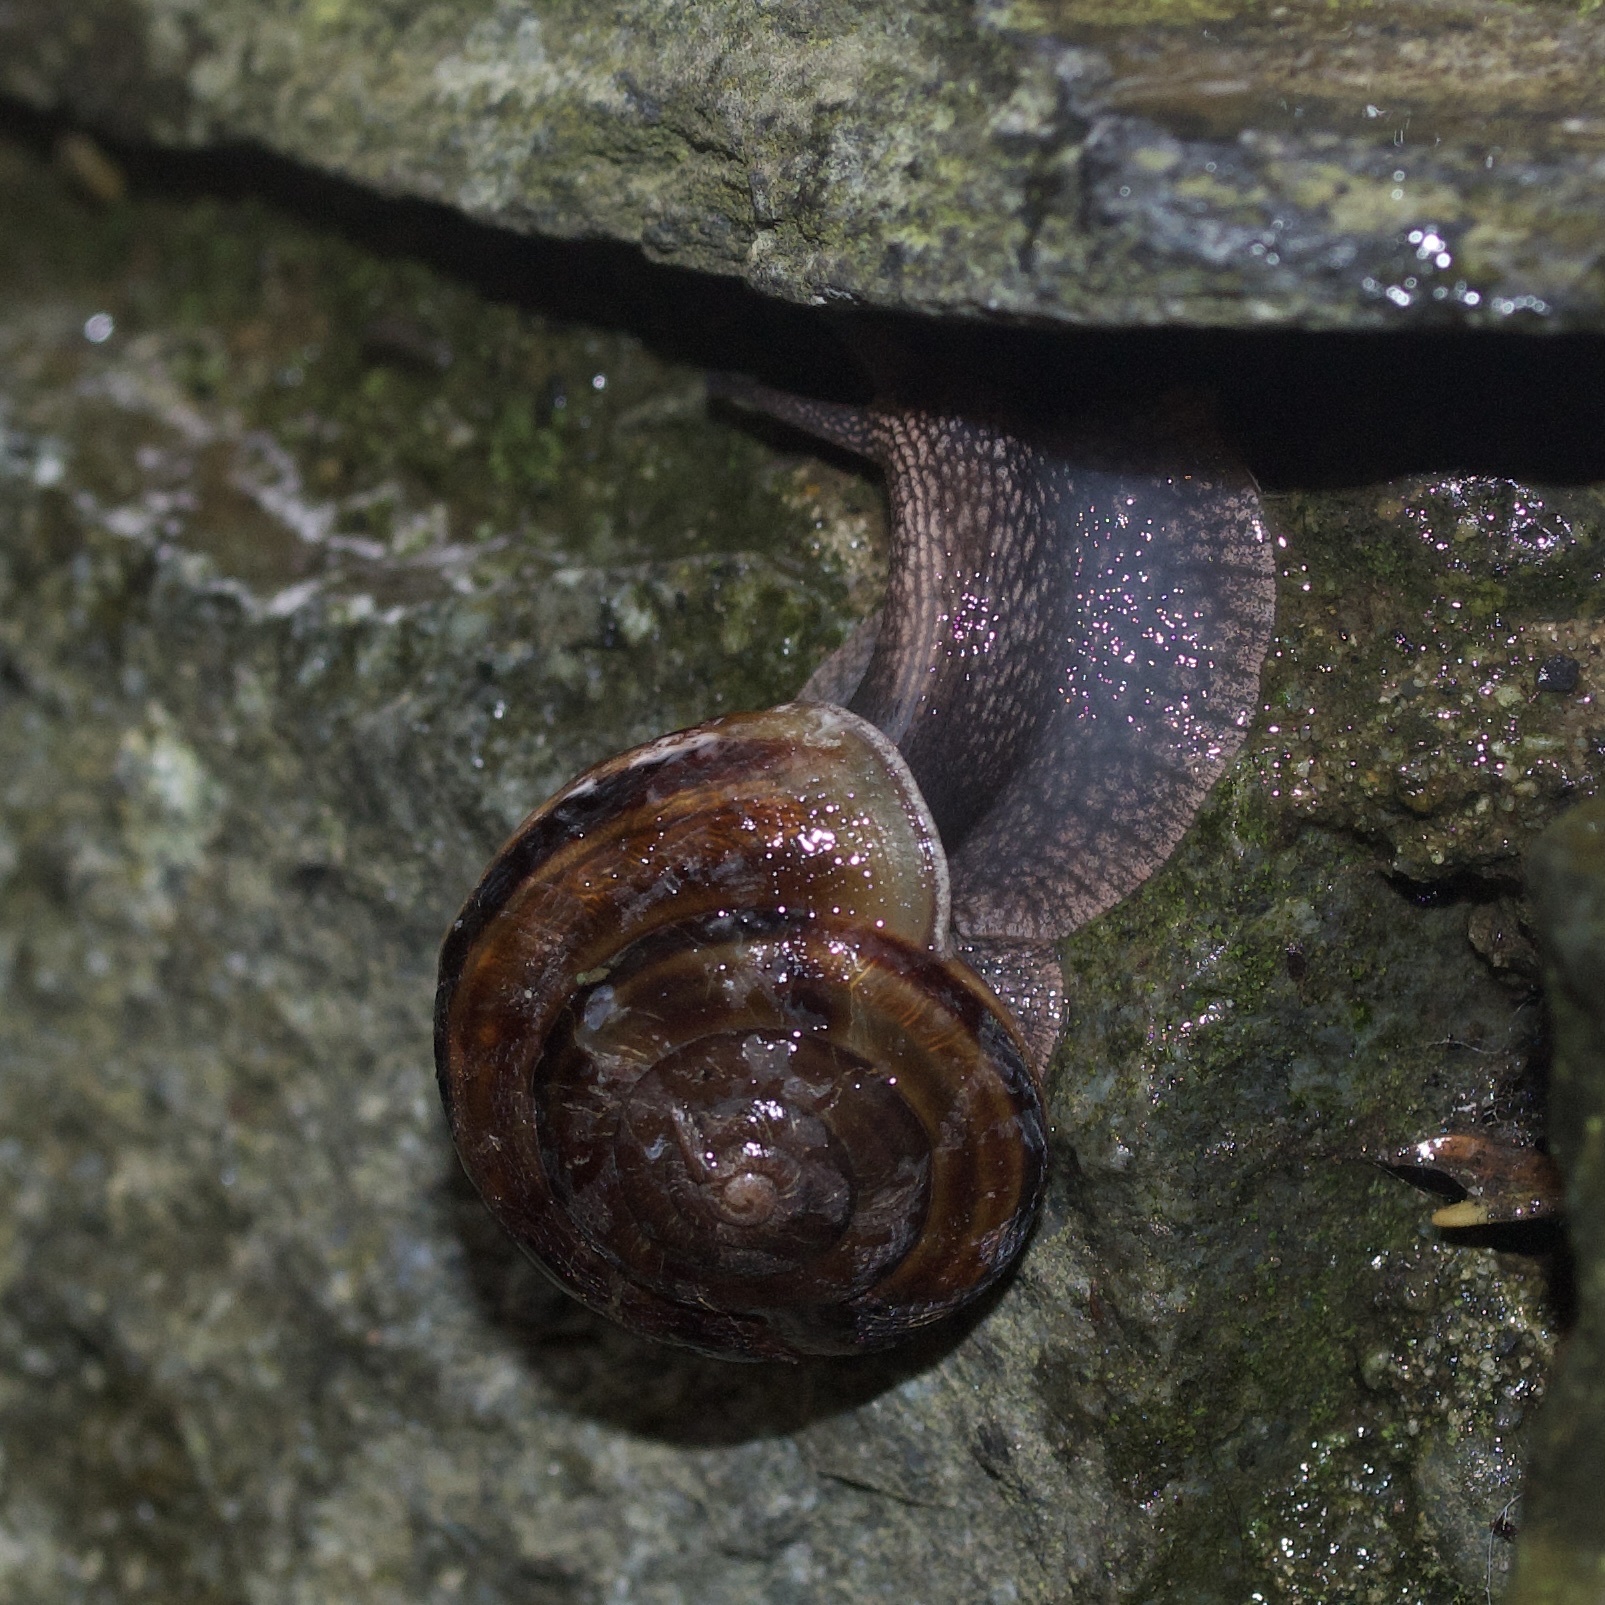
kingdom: Animalia
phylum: Mollusca
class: Gastropoda
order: Stylommatophora
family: Xanthonychidae
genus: Monadenia
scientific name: Monadenia fidelis
